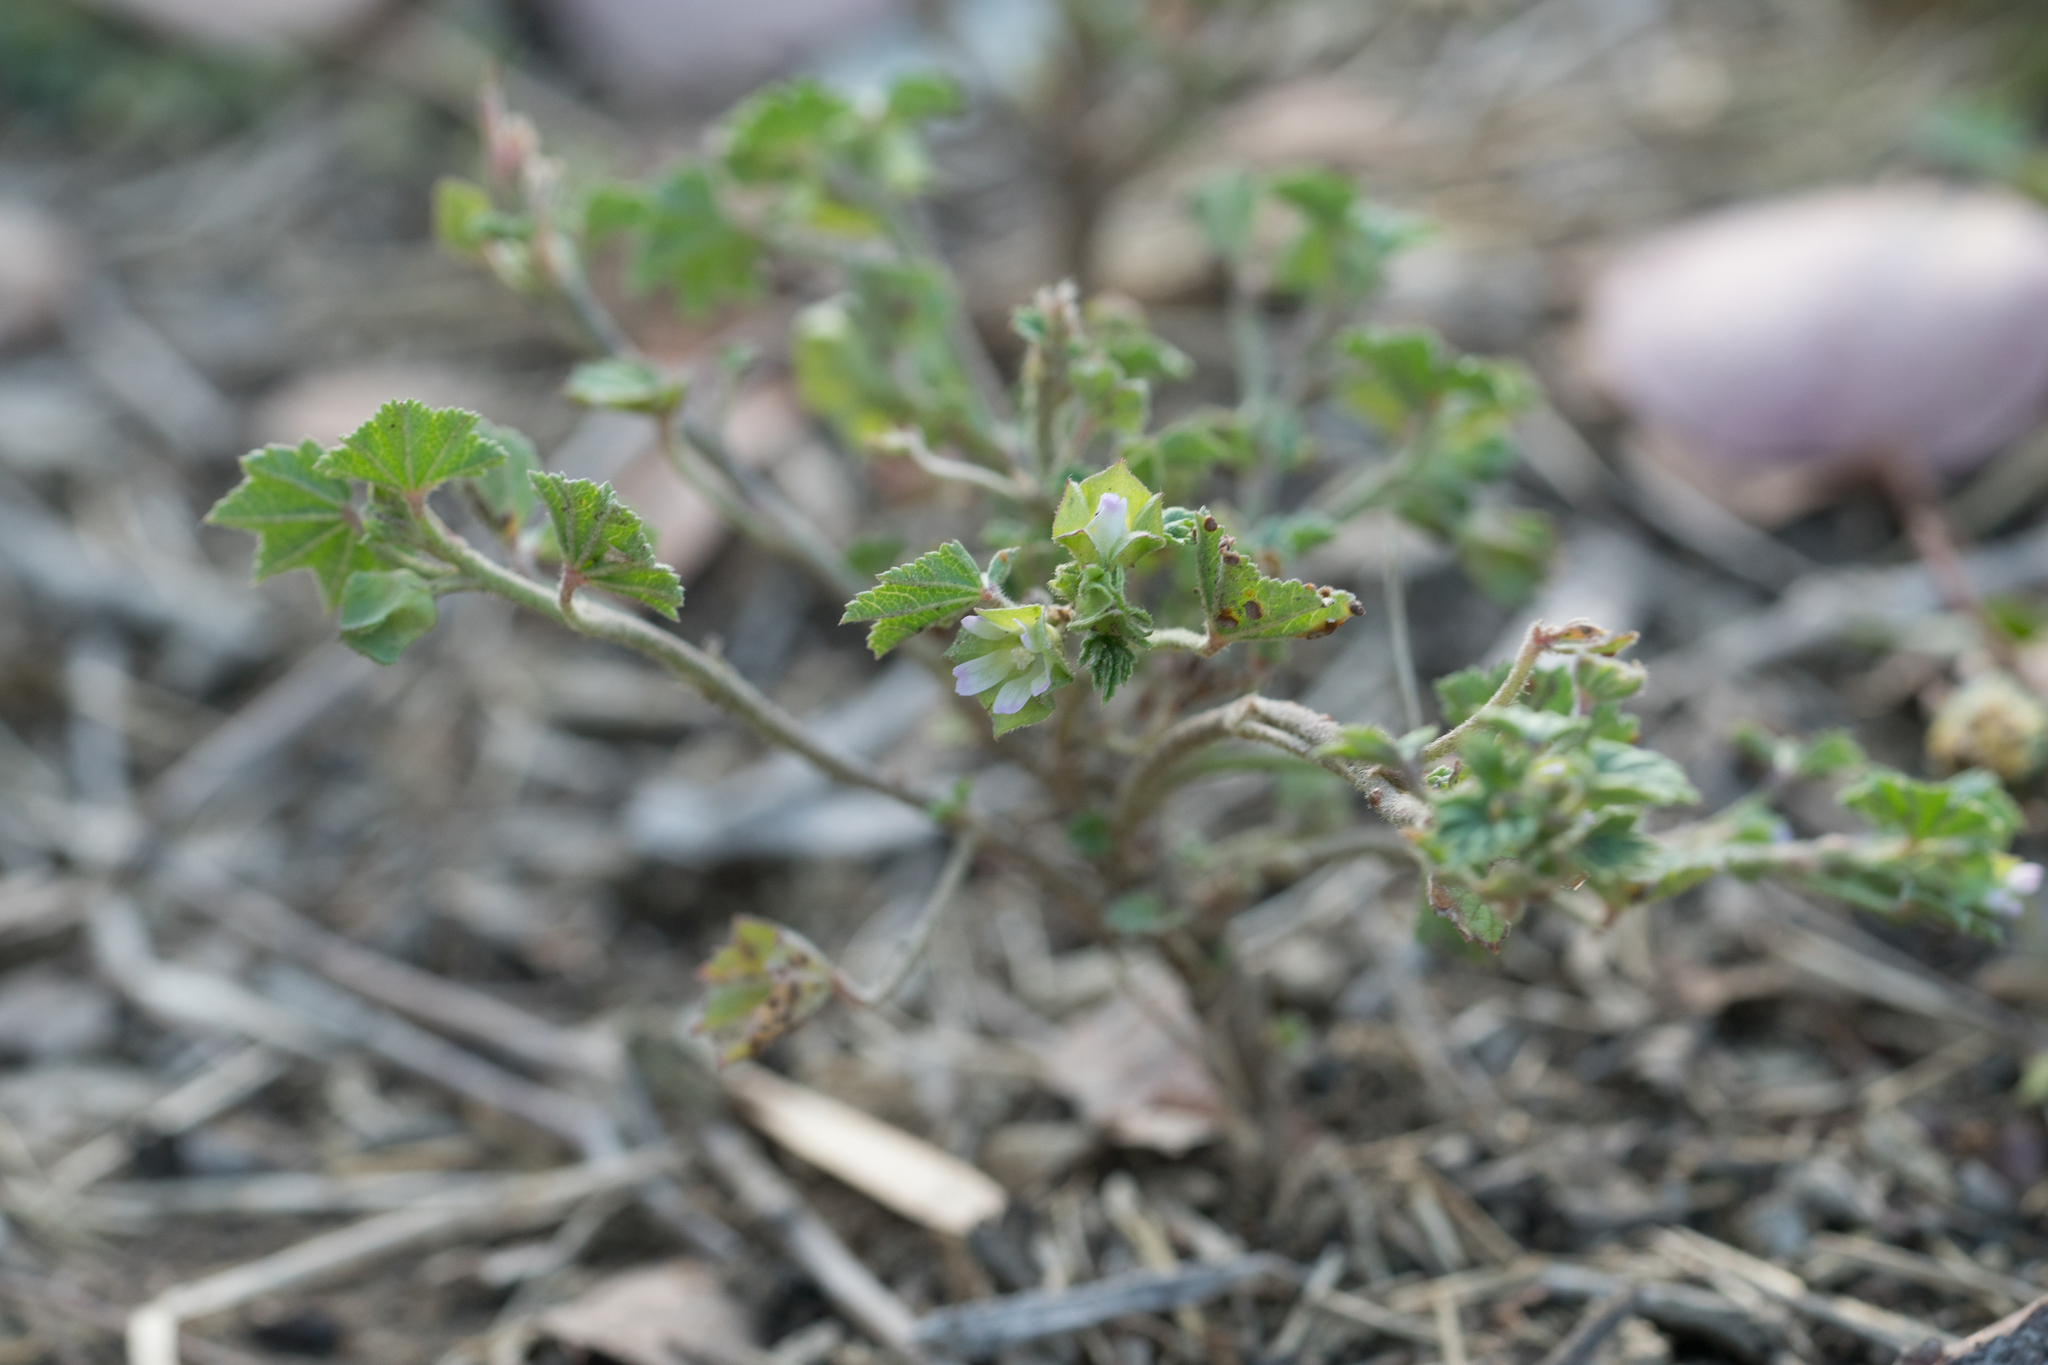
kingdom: Plantae
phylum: Tracheophyta
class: Magnoliopsida
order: Malvales
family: Malvaceae
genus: Malva
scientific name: Malva parviflora
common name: Least mallow
